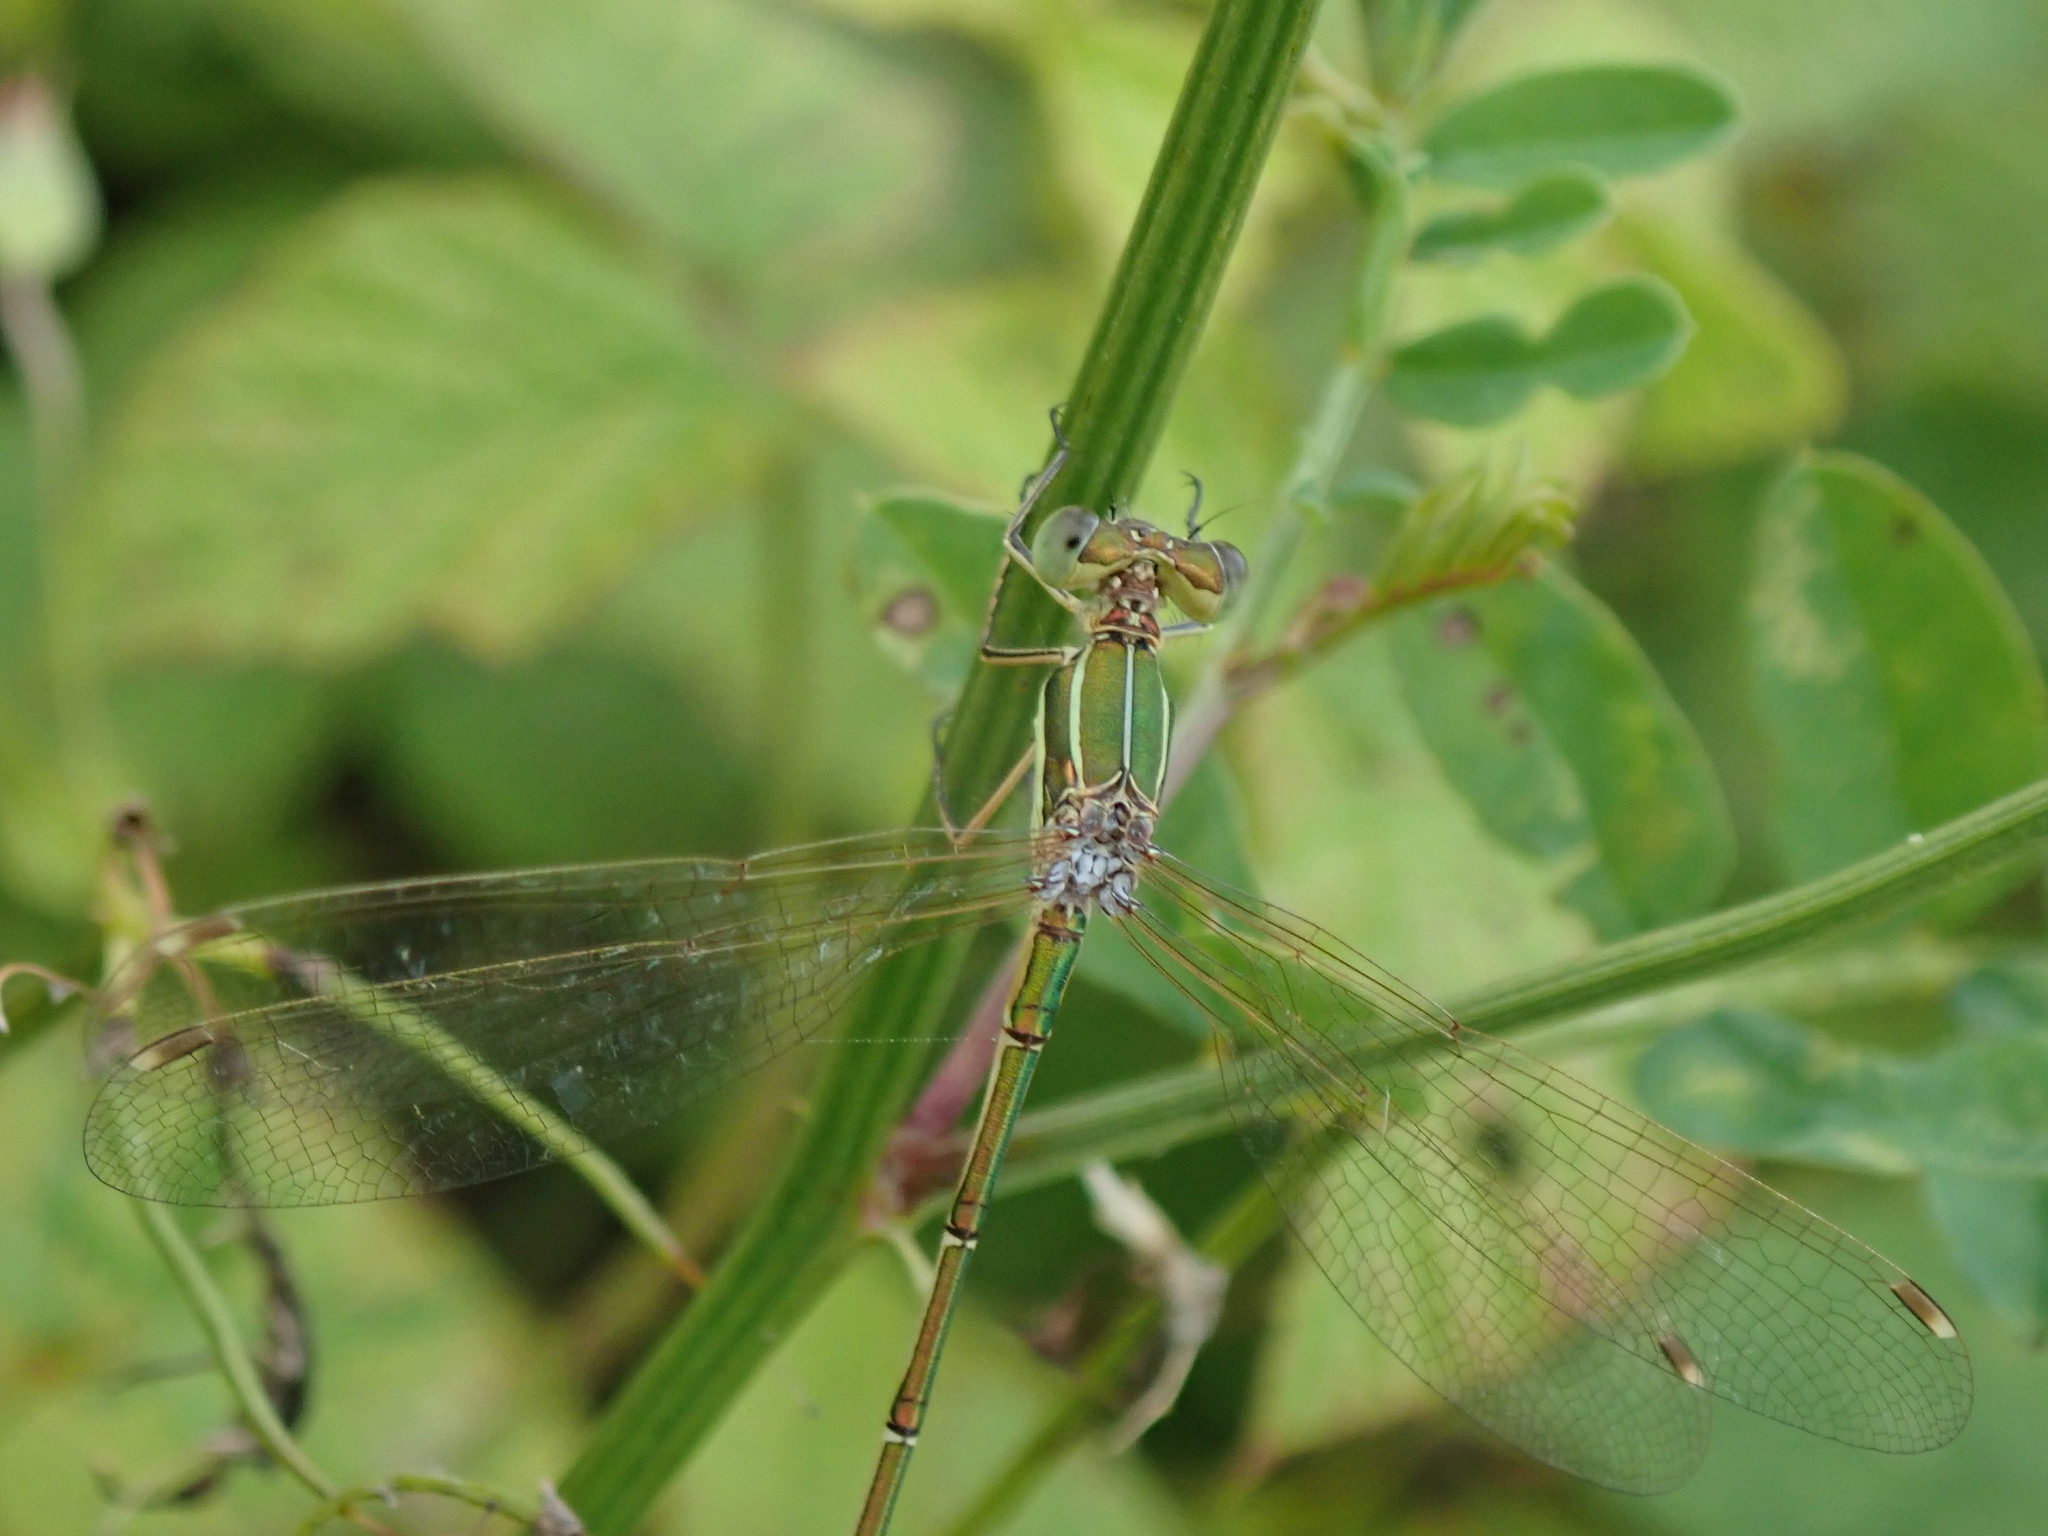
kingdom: Animalia
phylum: Arthropoda
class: Insecta
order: Odonata
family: Lestidae
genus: Lestes
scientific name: Lestes barbarus
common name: Migrant spreadwing
